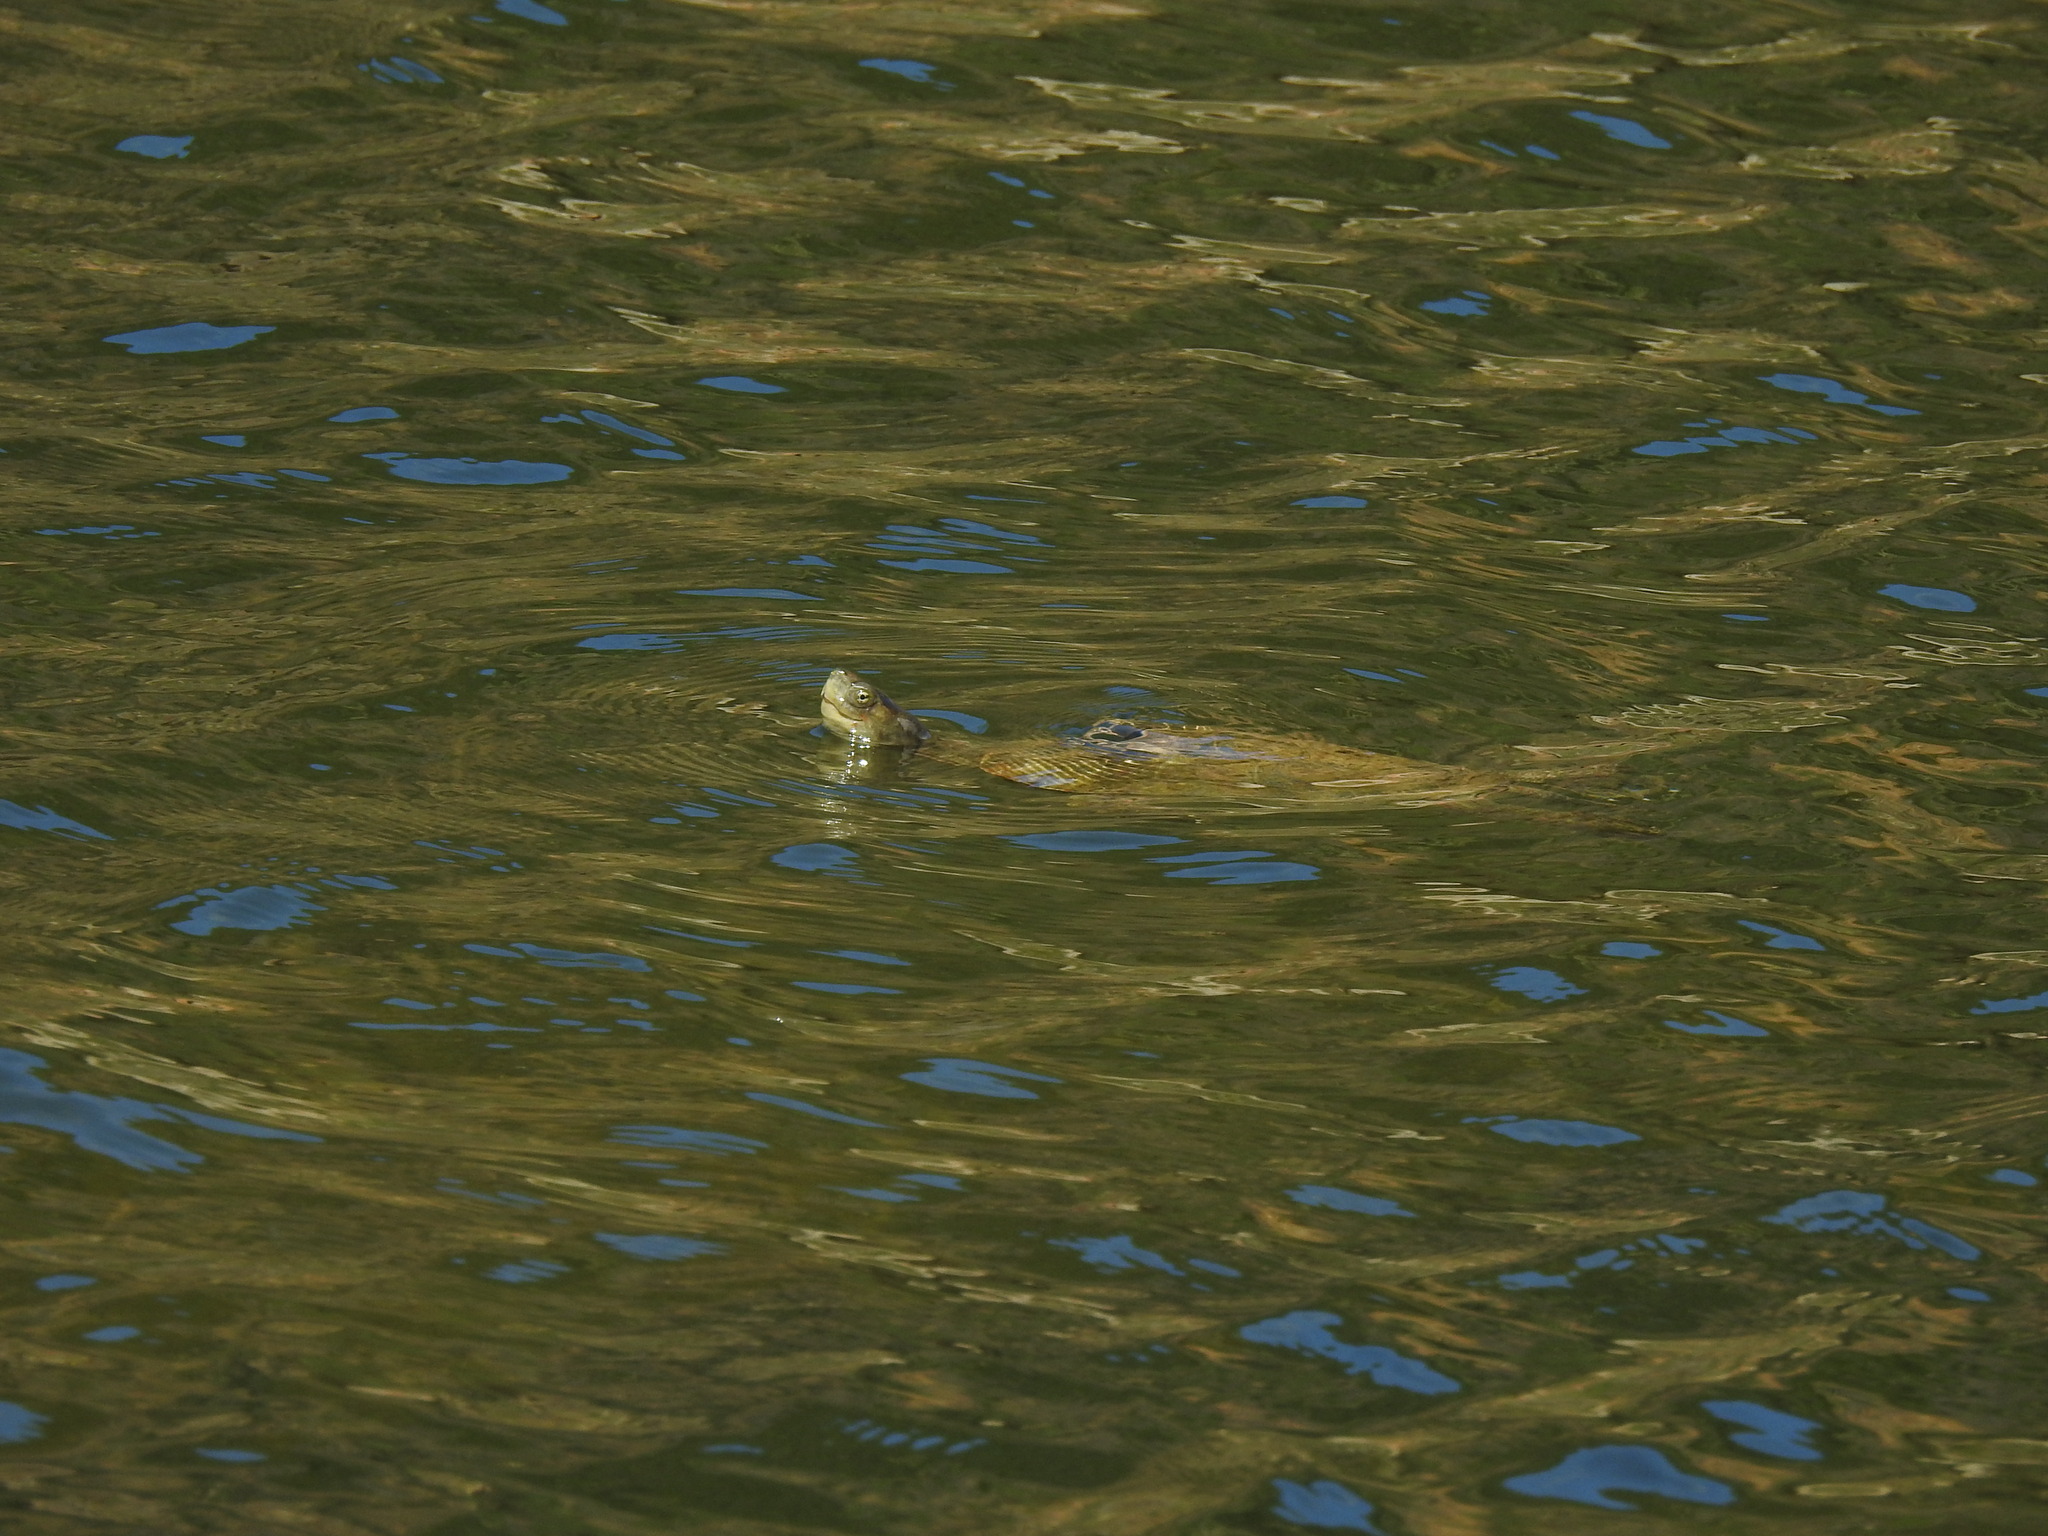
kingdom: Animalia
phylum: Chordata
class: Testudines
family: Geoemydidae
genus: Mauremys
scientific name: Mauremys leprosa
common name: Mediterranean pond turtle
